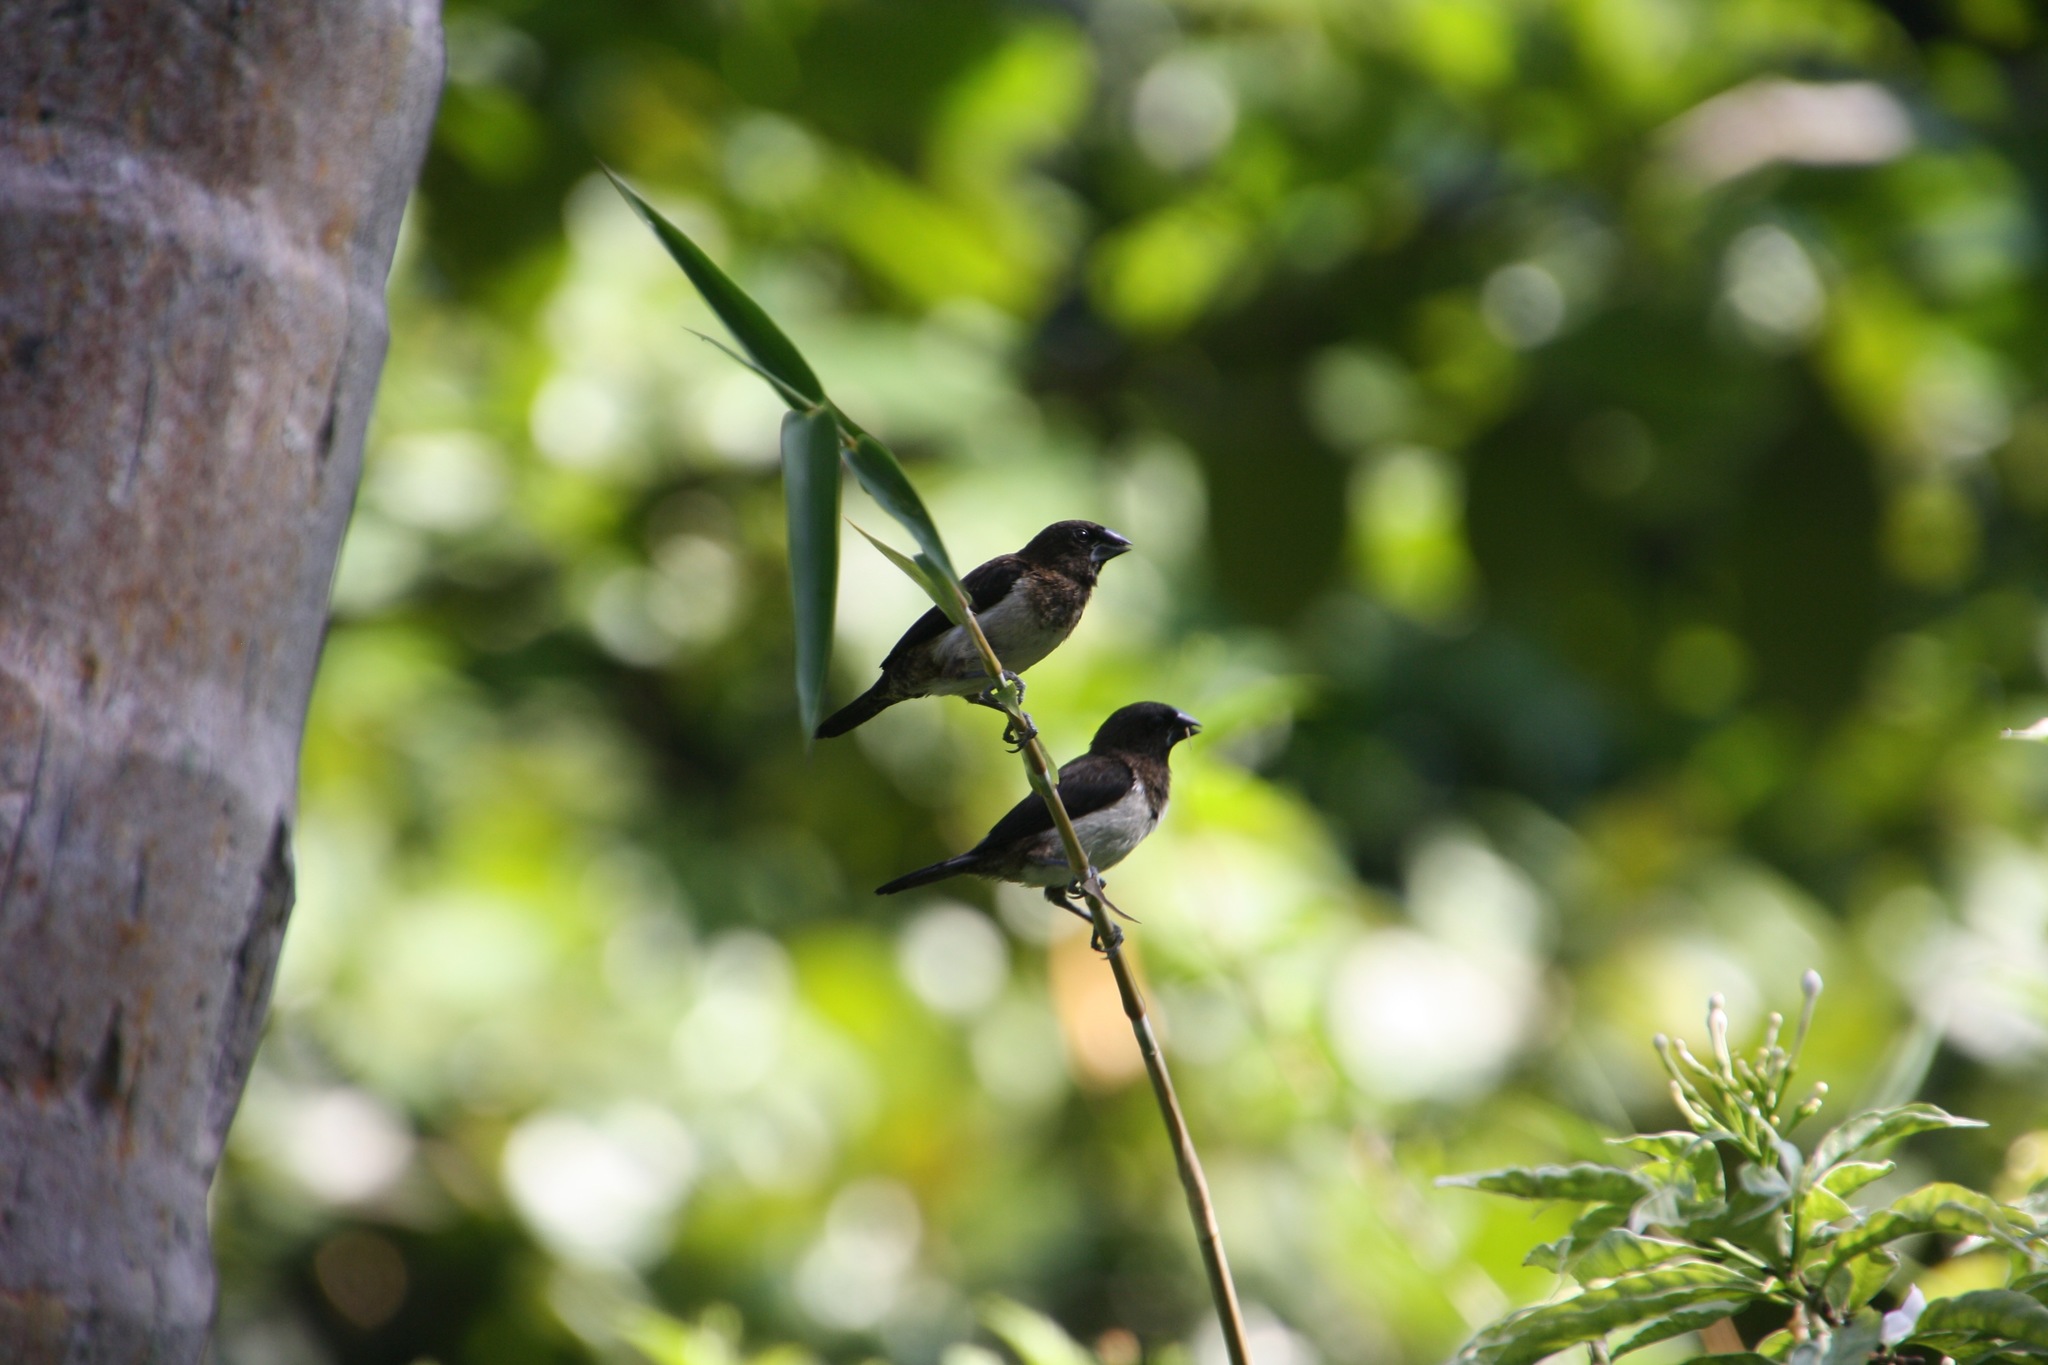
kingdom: Animalia
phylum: Chordata
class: Aves
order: Passeriformes
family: Estrildidae
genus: Lonchura
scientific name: Lonchura striata
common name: White-rumped munia
